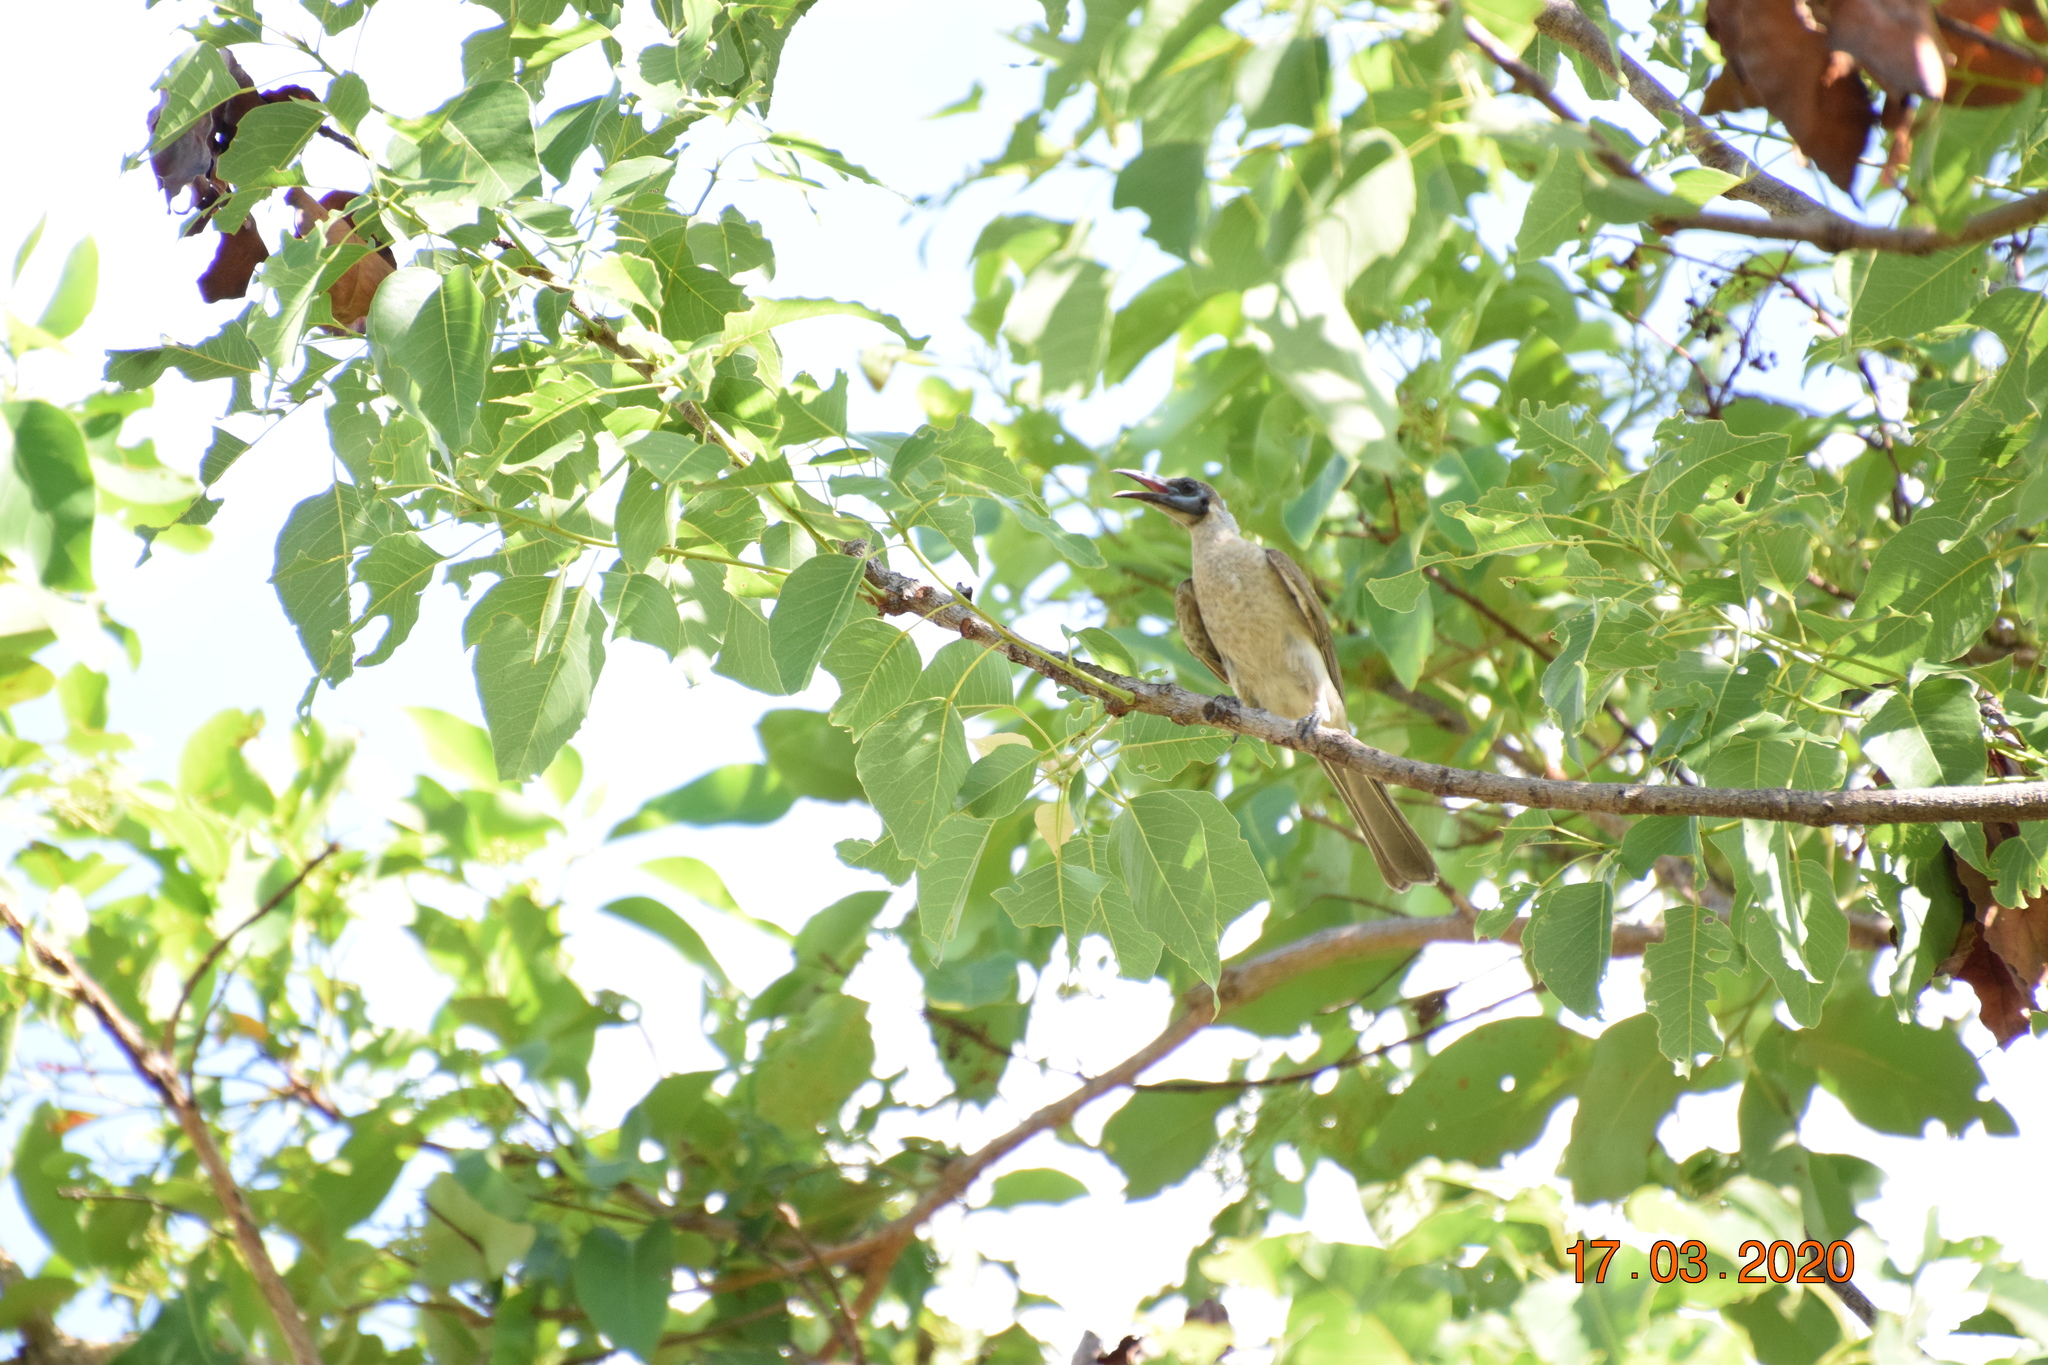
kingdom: Animalia
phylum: Chordata
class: Aves
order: Passeriformes
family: Meliphagidae
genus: Philemon
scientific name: Philemon citreogularis
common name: Little friarbird
